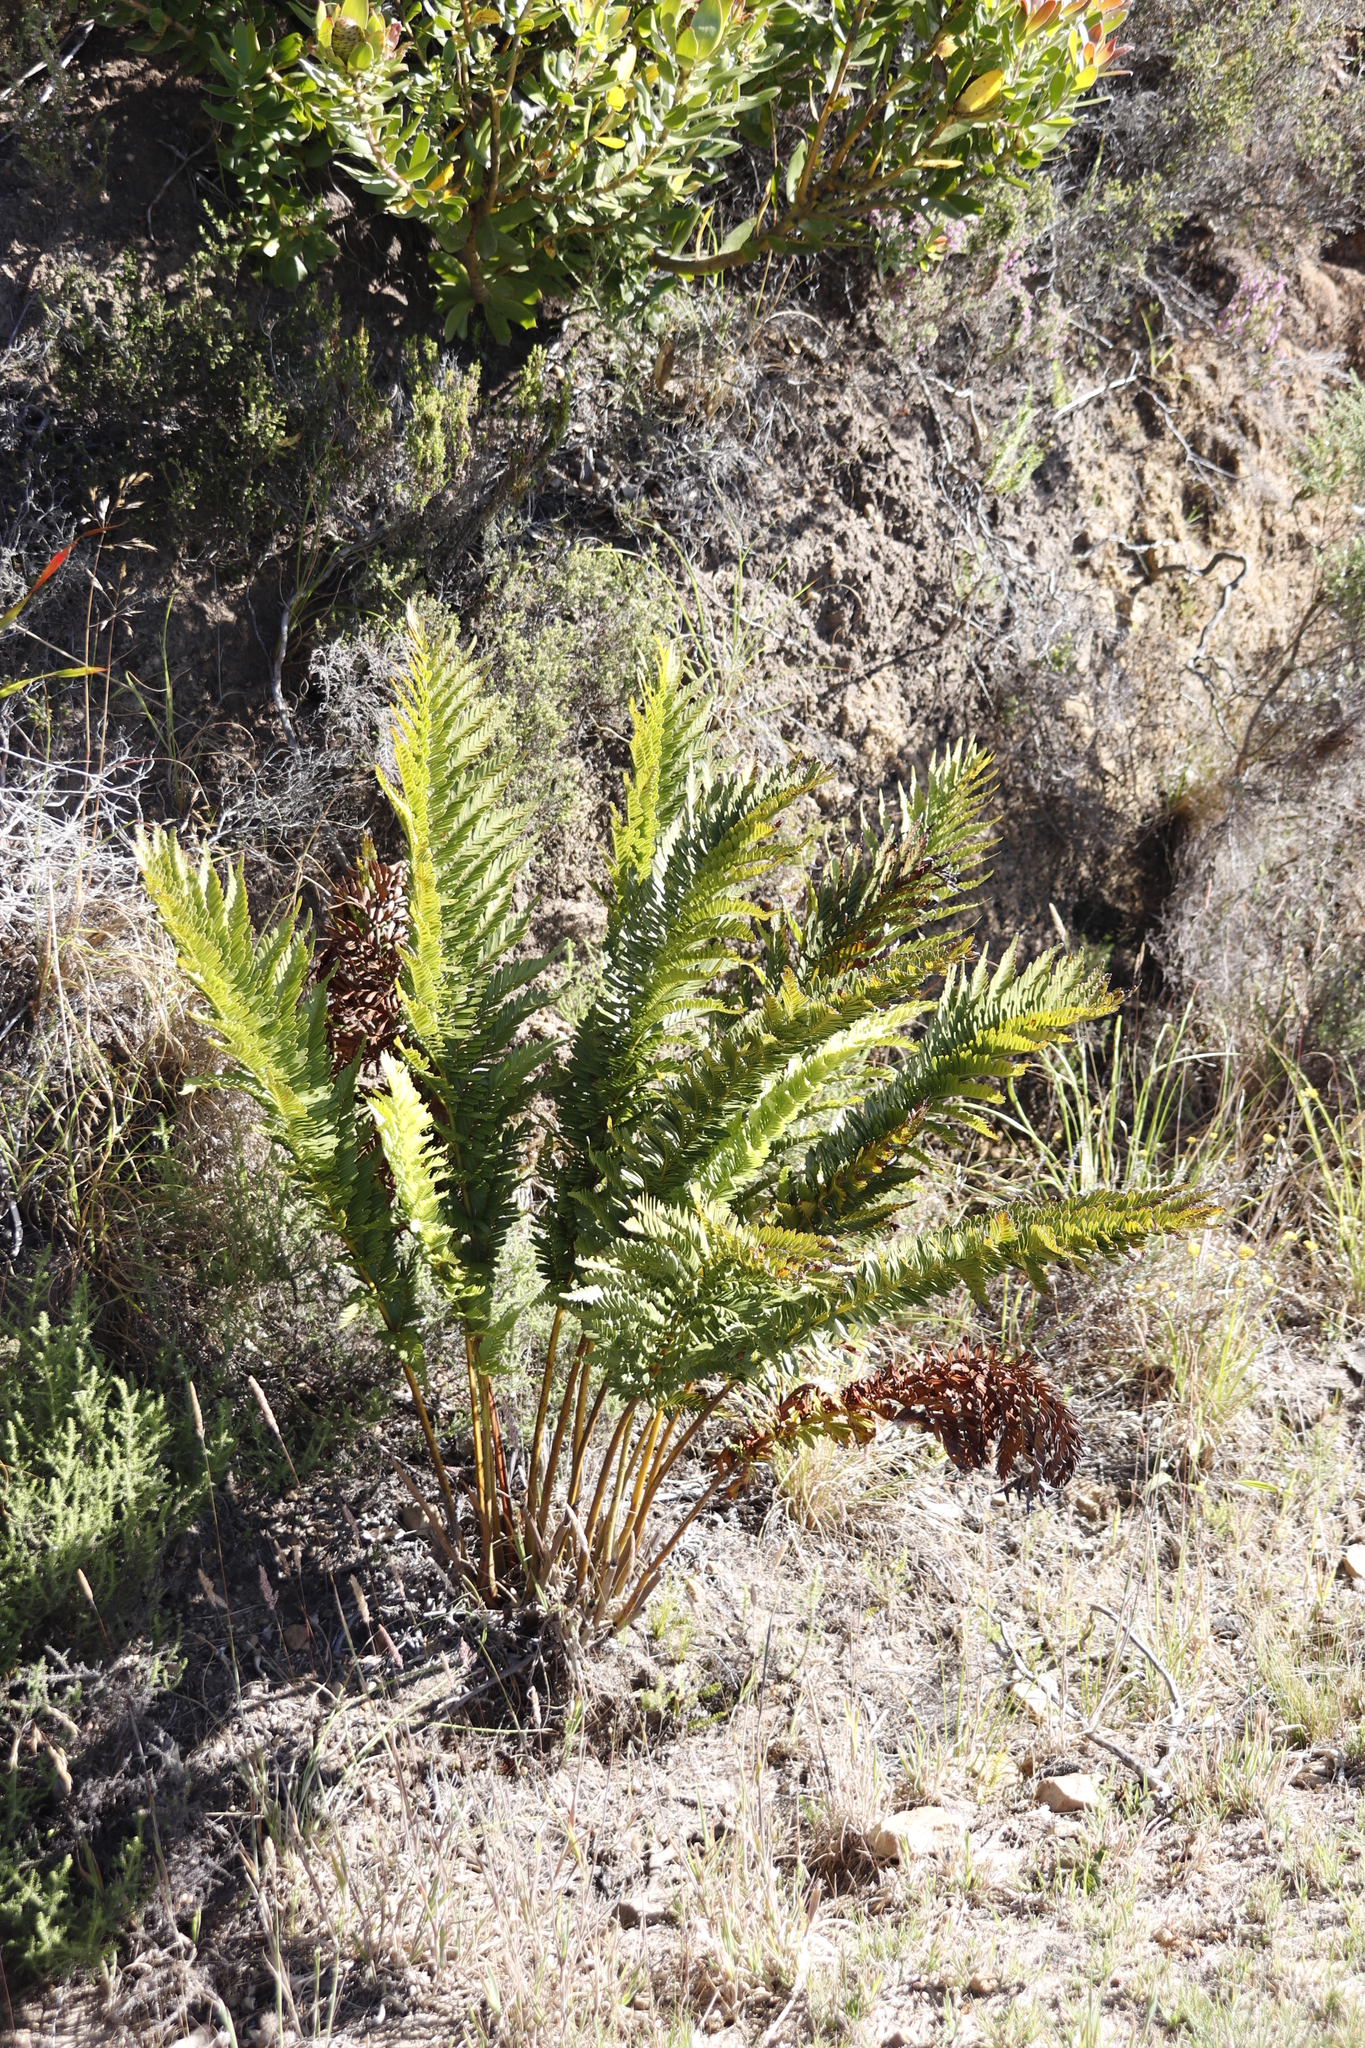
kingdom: Plantae
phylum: Tracheophyta
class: Polypodiopsida
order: Osmundales
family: Osmundaceae
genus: Todea
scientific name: Todea barbara
